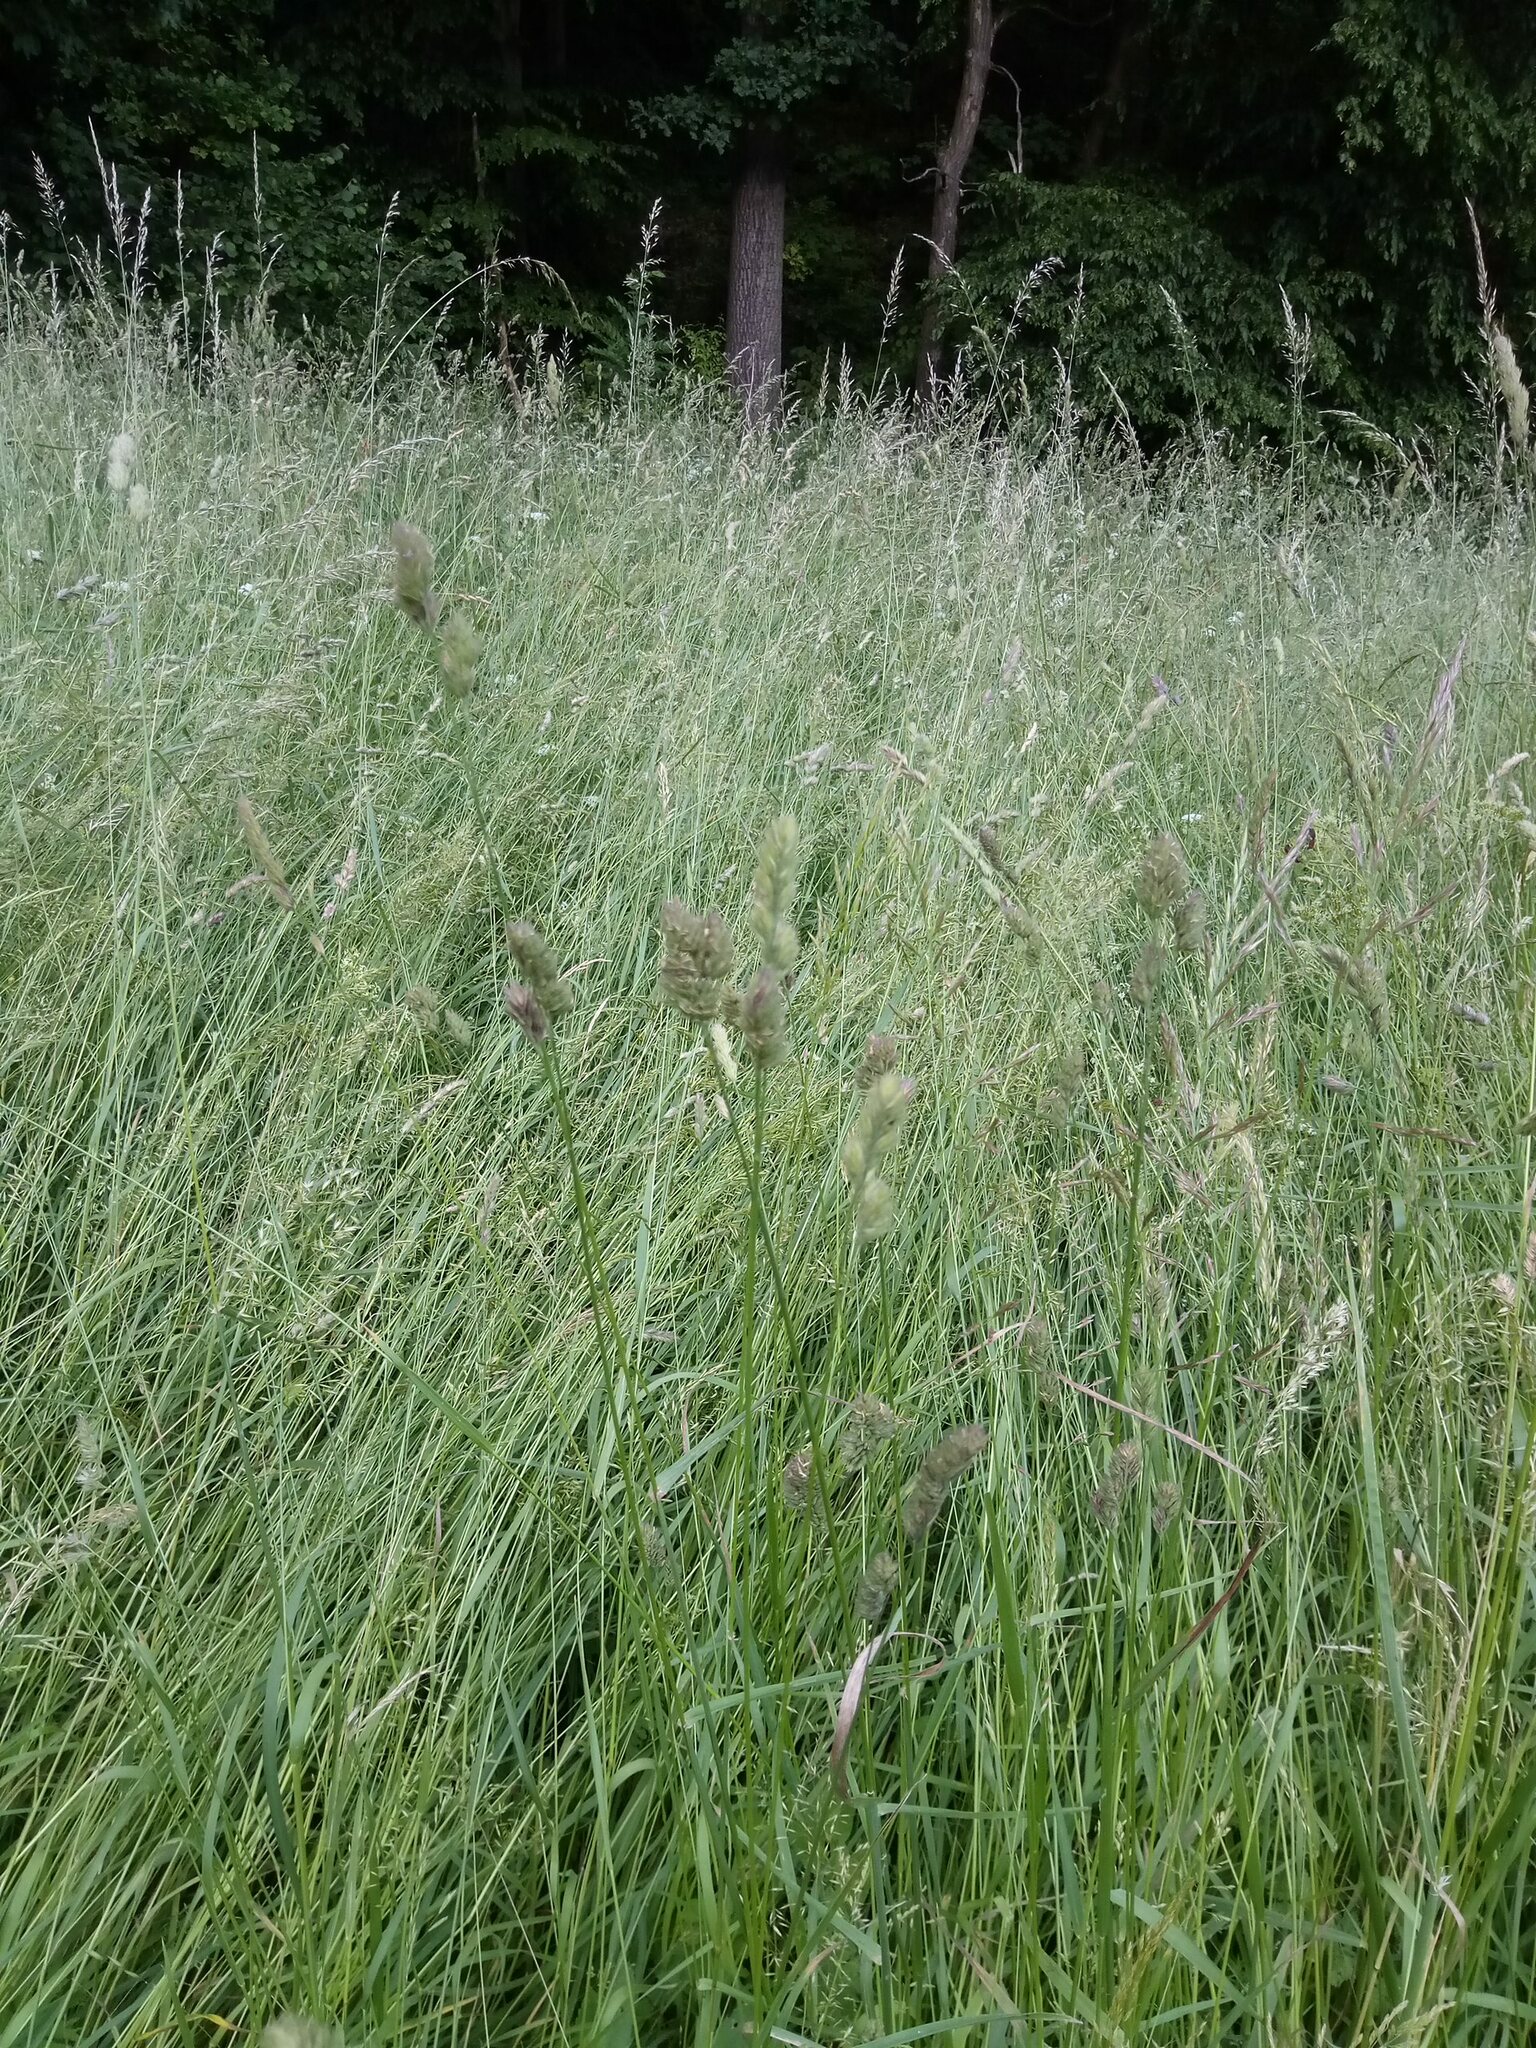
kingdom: Plantae
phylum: Tracheophyta
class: Liliopsida
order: Poales
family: Poaceae
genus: Dactylis
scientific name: Dactylis glomerata
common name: Orchardgrass
